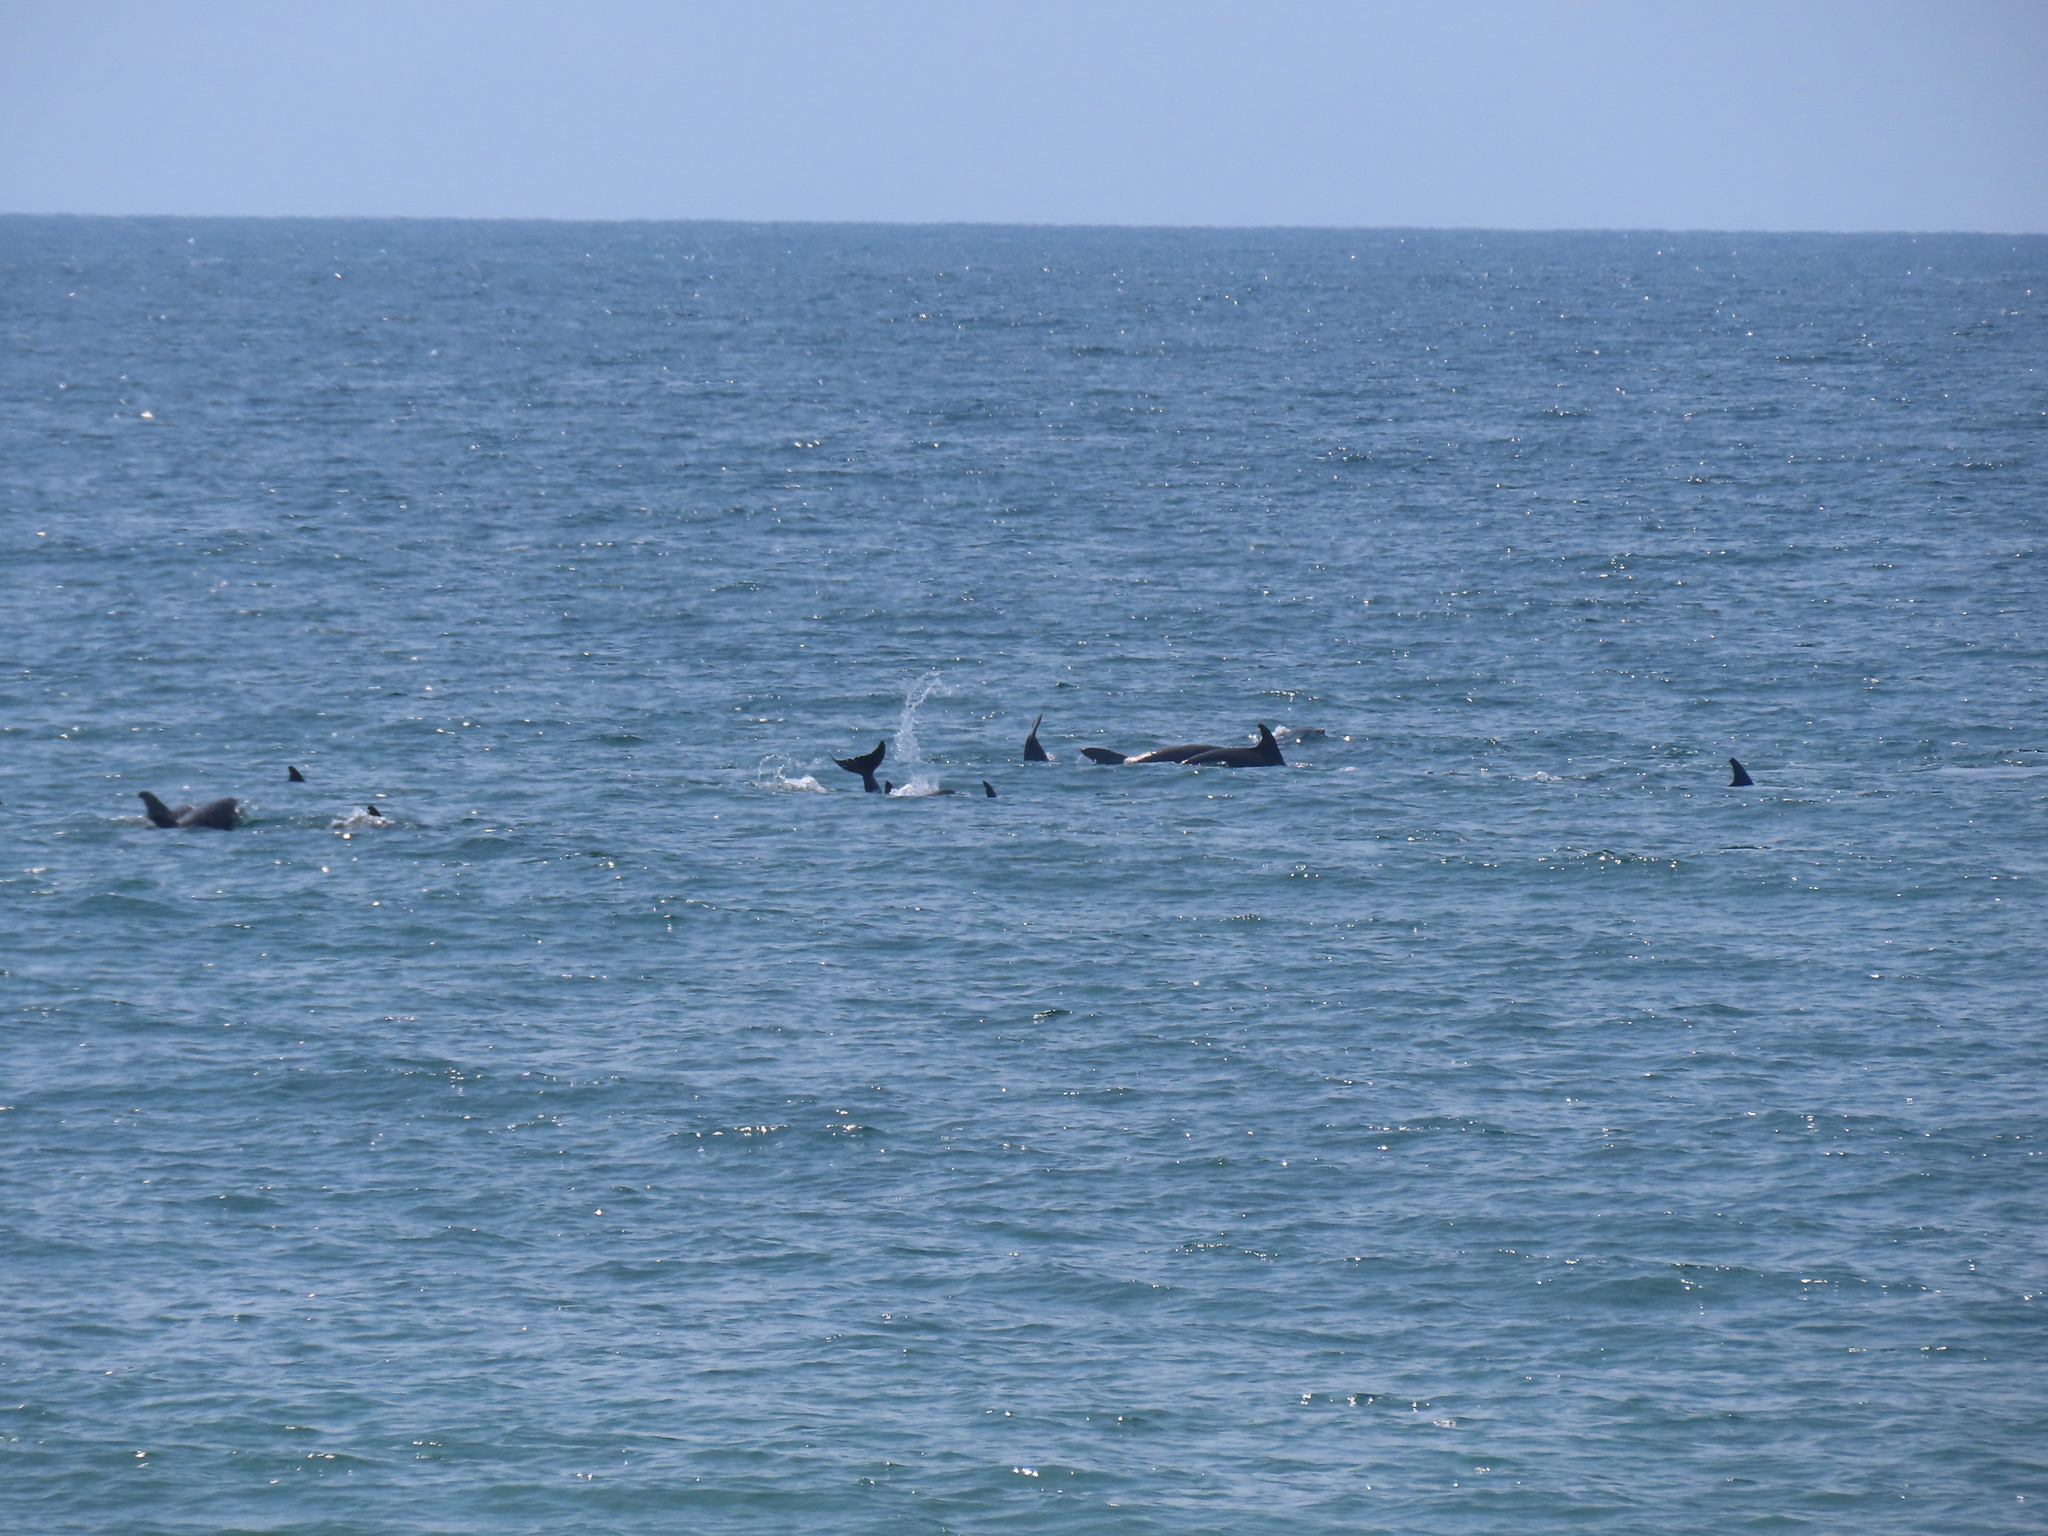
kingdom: Animalia
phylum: Chordata
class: Mammalia
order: Cetacea
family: Delphinidae
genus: Tursiops
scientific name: Tursiops truncatus
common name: Bottlenose dolphin
